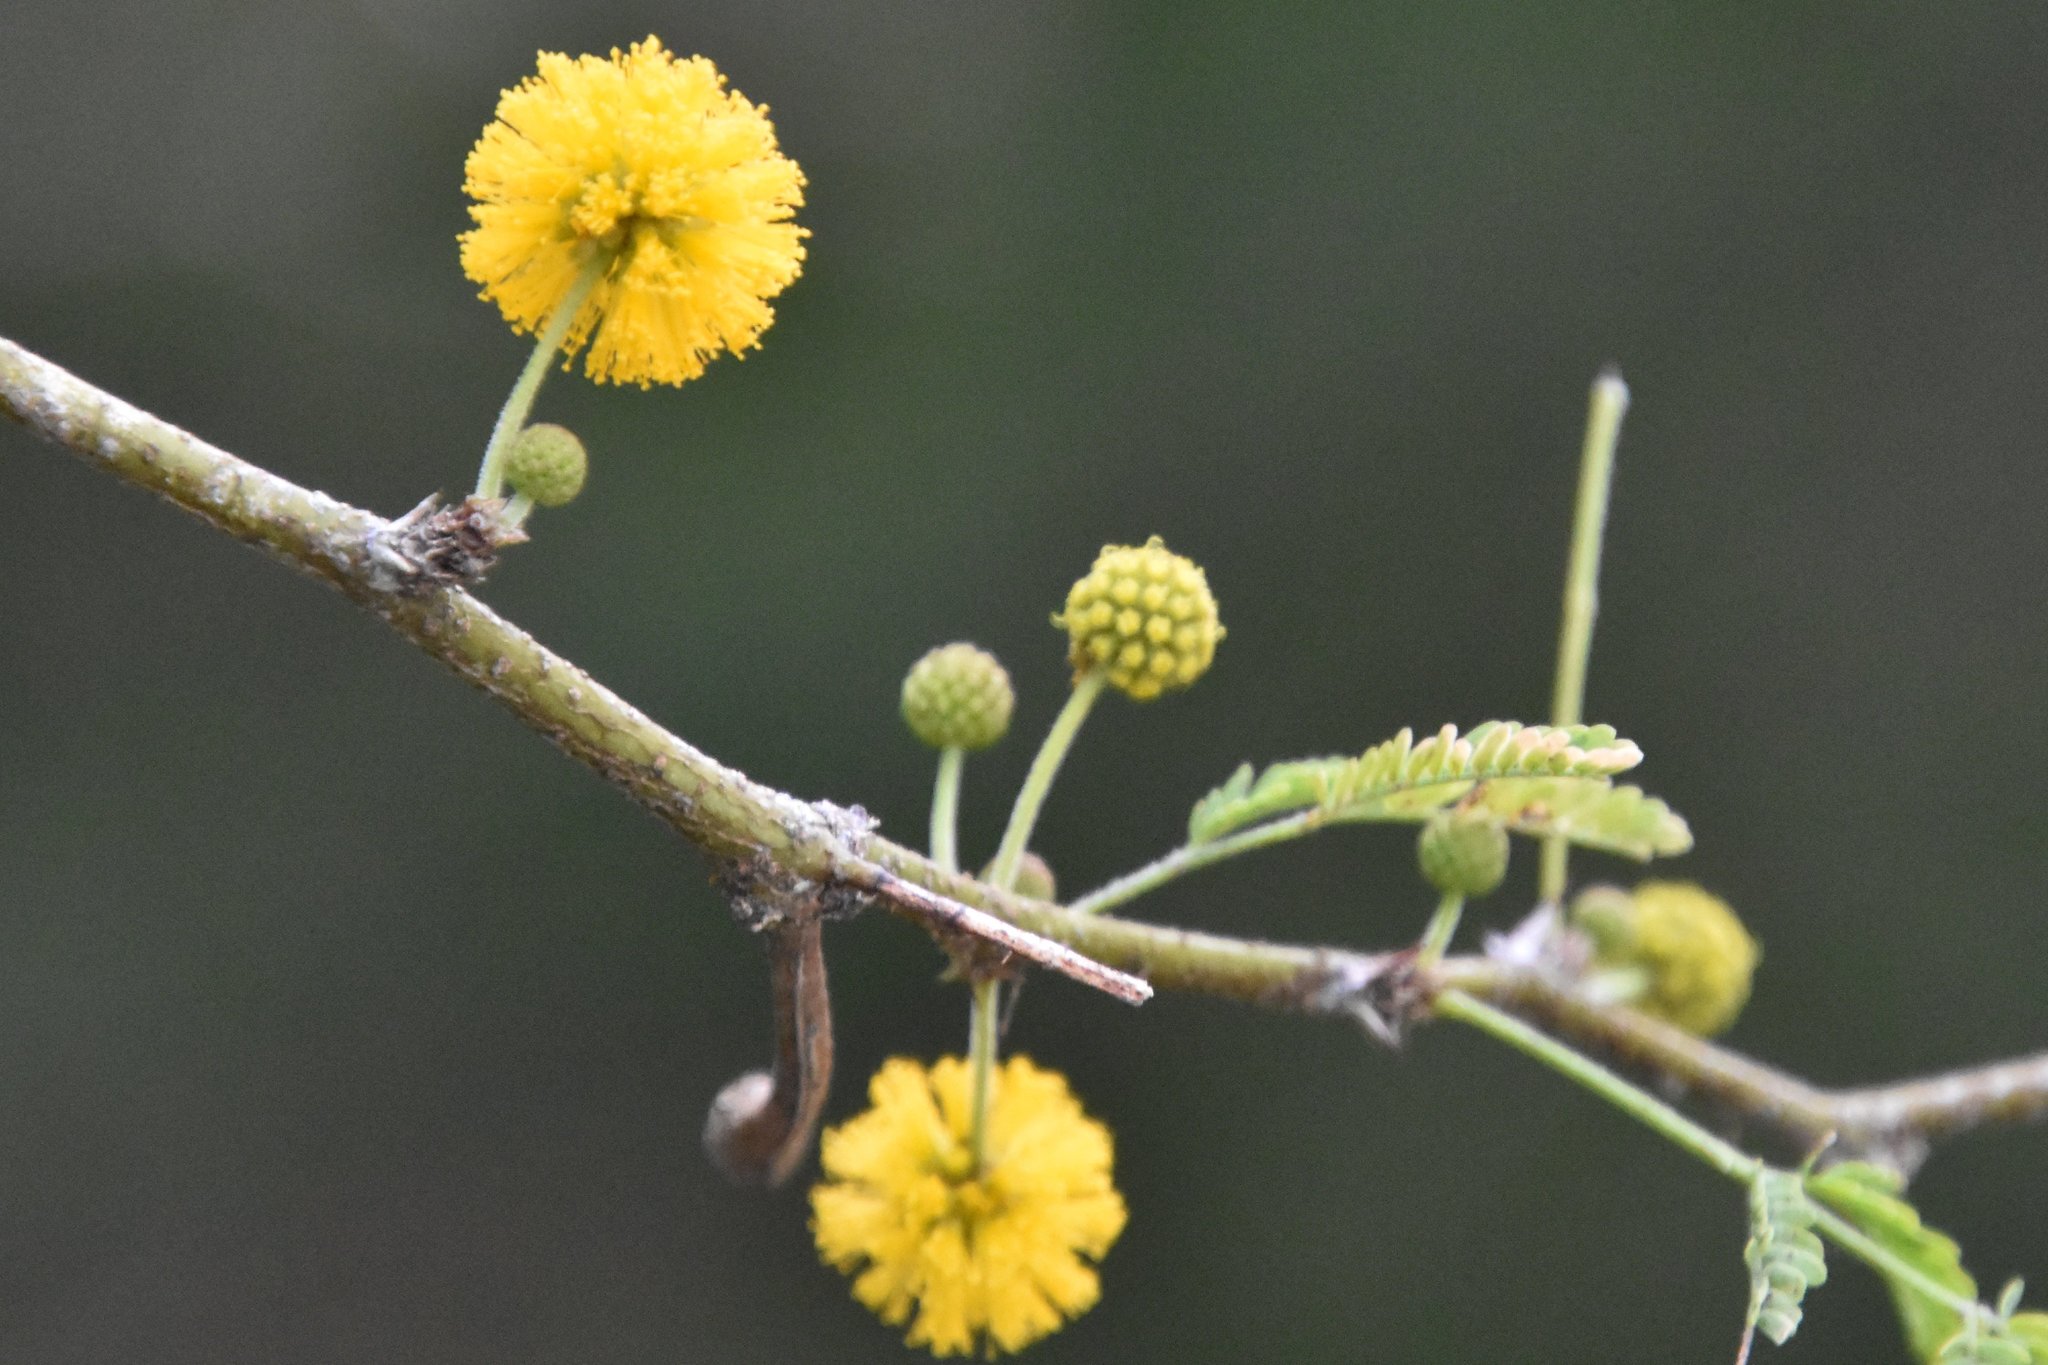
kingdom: Plantae
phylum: Tracheophyta
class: Magnoliopsida
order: Fabales
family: Fabaceae
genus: Vachellia
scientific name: Vachellia farnesiana
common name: Sweet acacia
